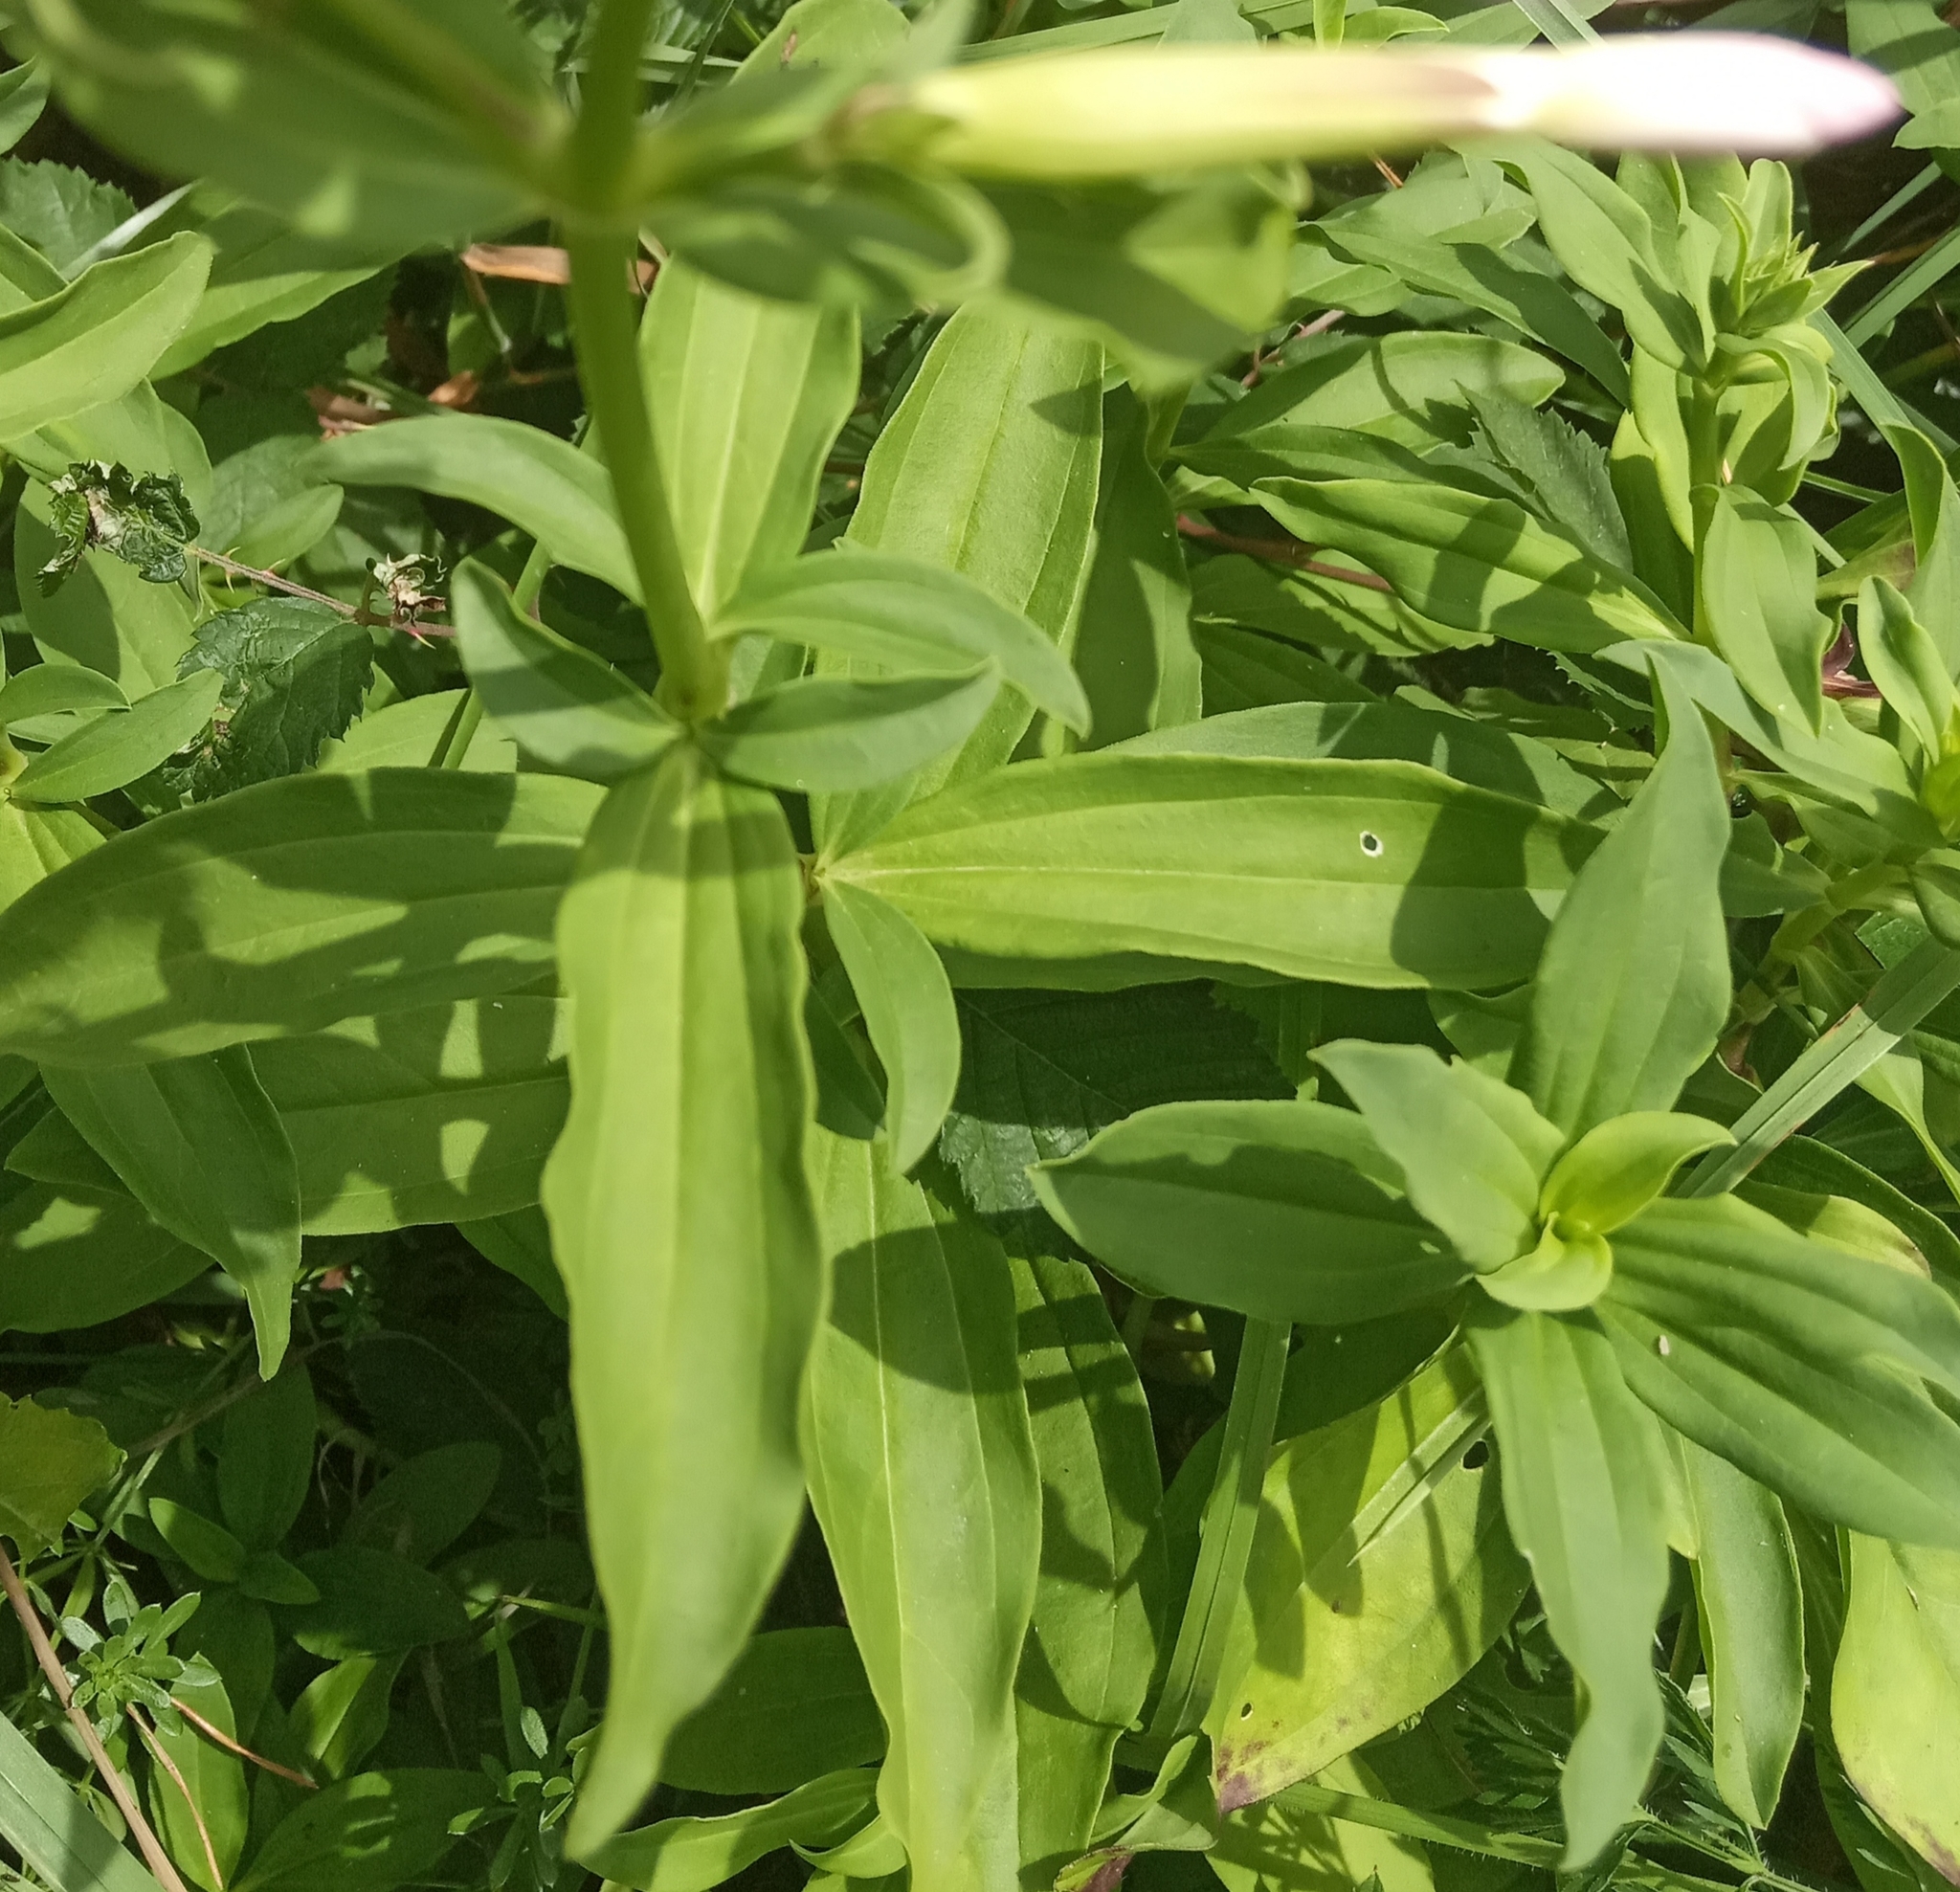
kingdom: Plantae
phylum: Tracheophyta
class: Magnoliopsida
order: Caryophyllales
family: Caryophyllaceae
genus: Saponaria
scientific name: Saponaria officinalis
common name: Soapwort
